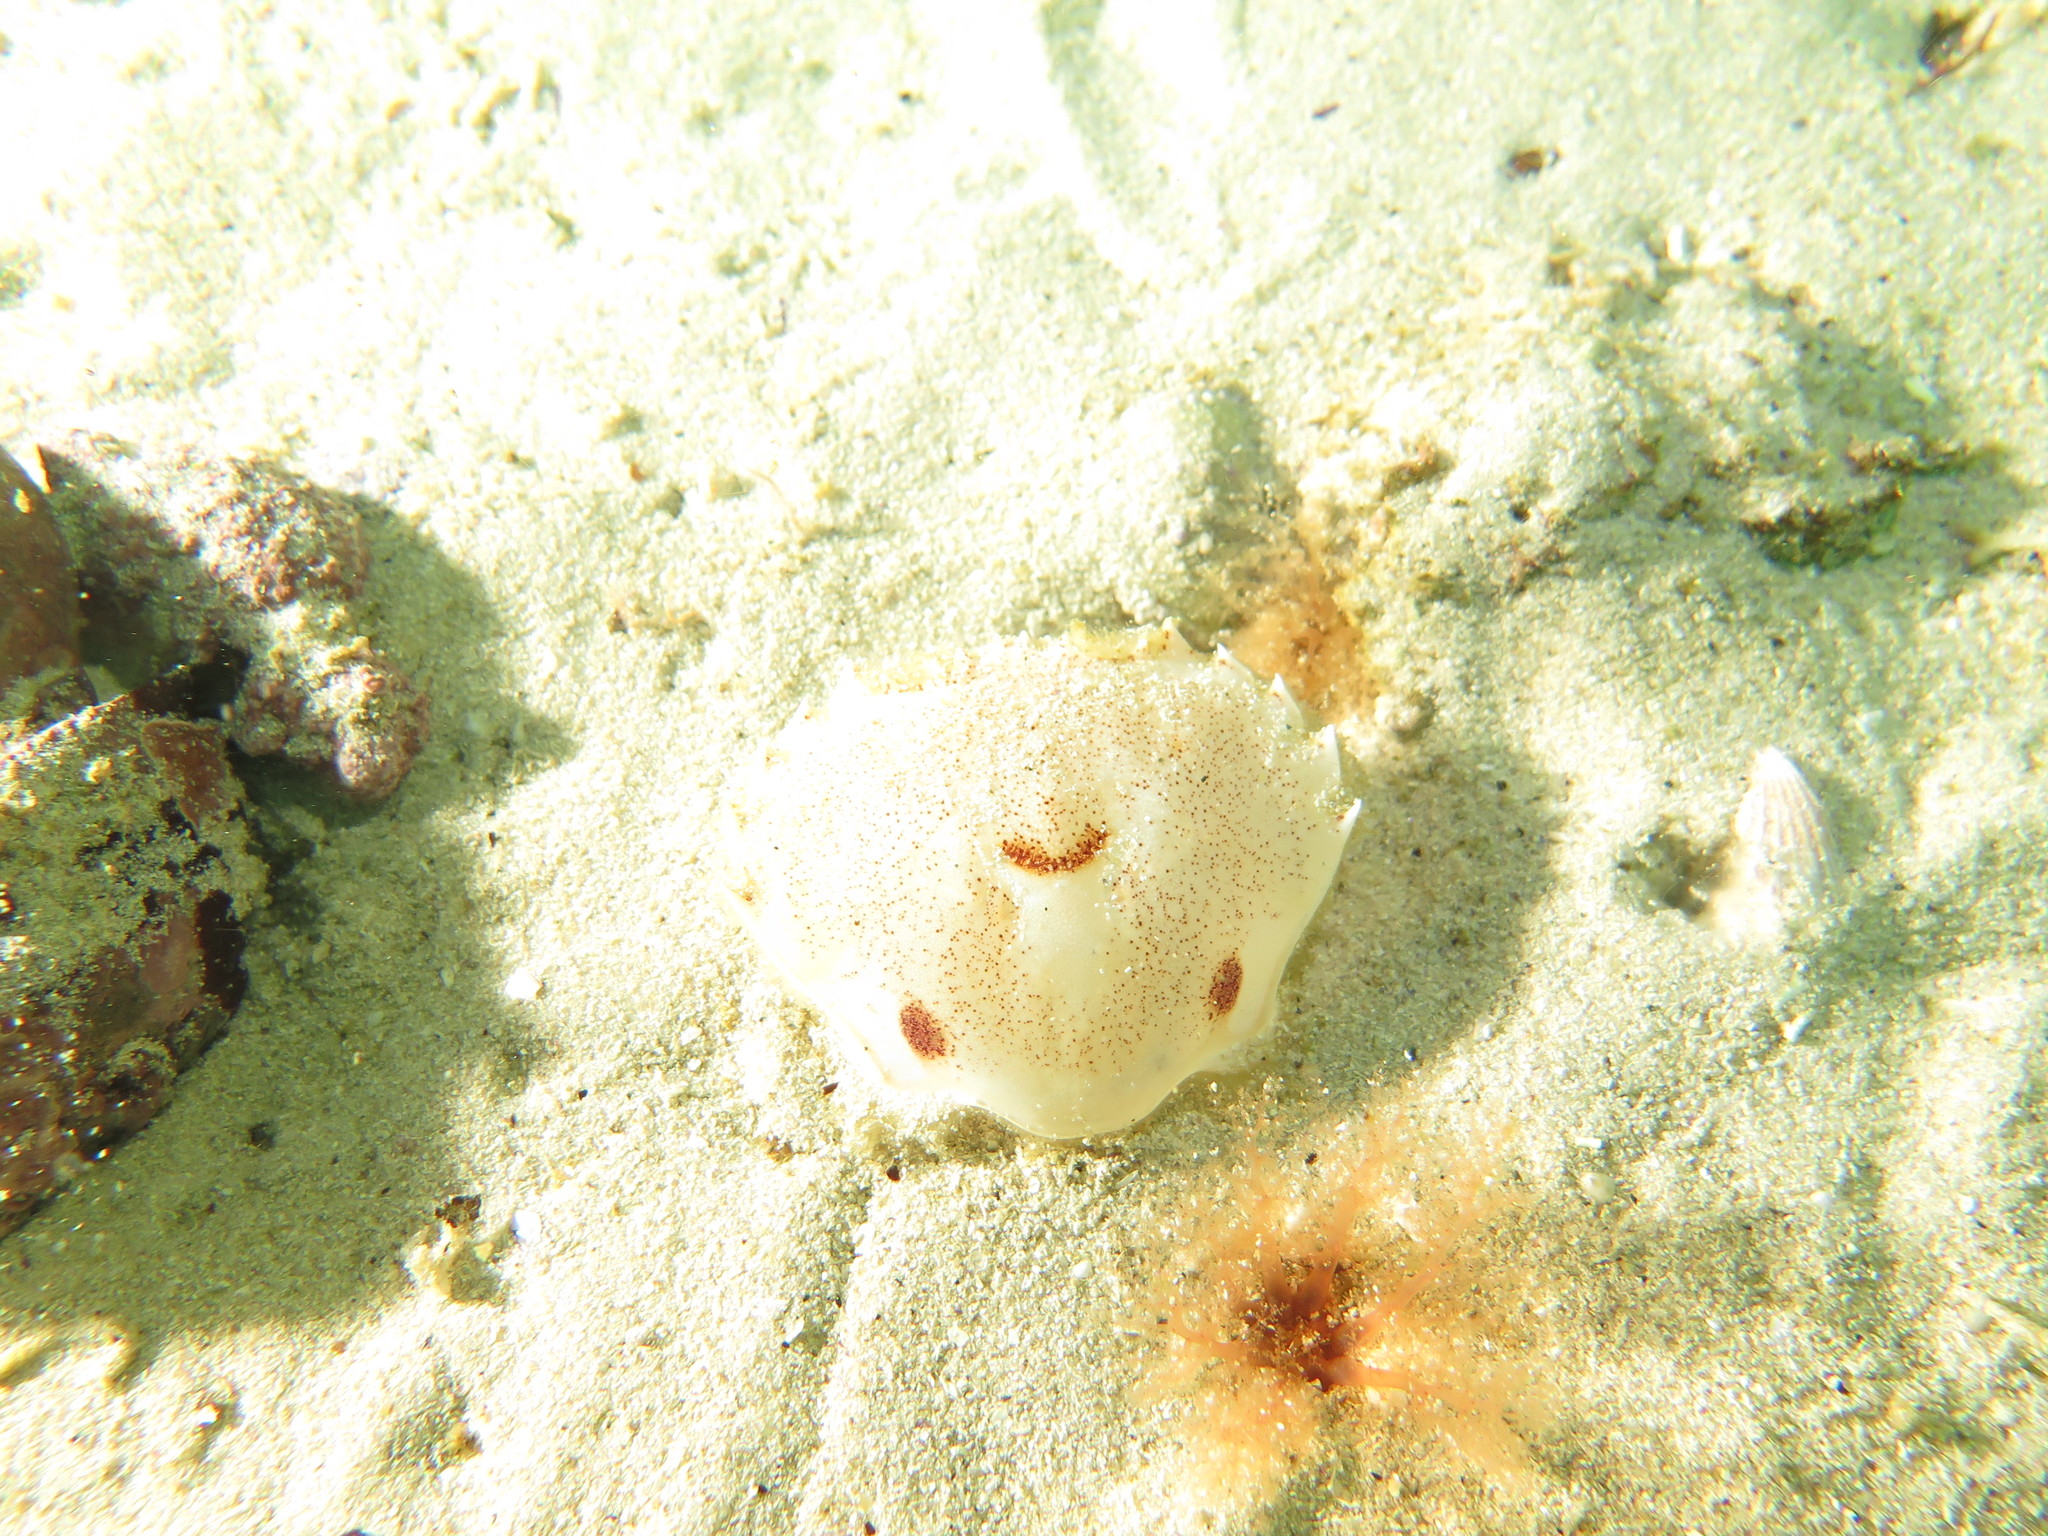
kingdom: Animalia
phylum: Arthropoda
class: Malacostraca
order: Decapoda
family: Ovalipidae
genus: Ovalipes
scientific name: Ovalipes trimaculatus
